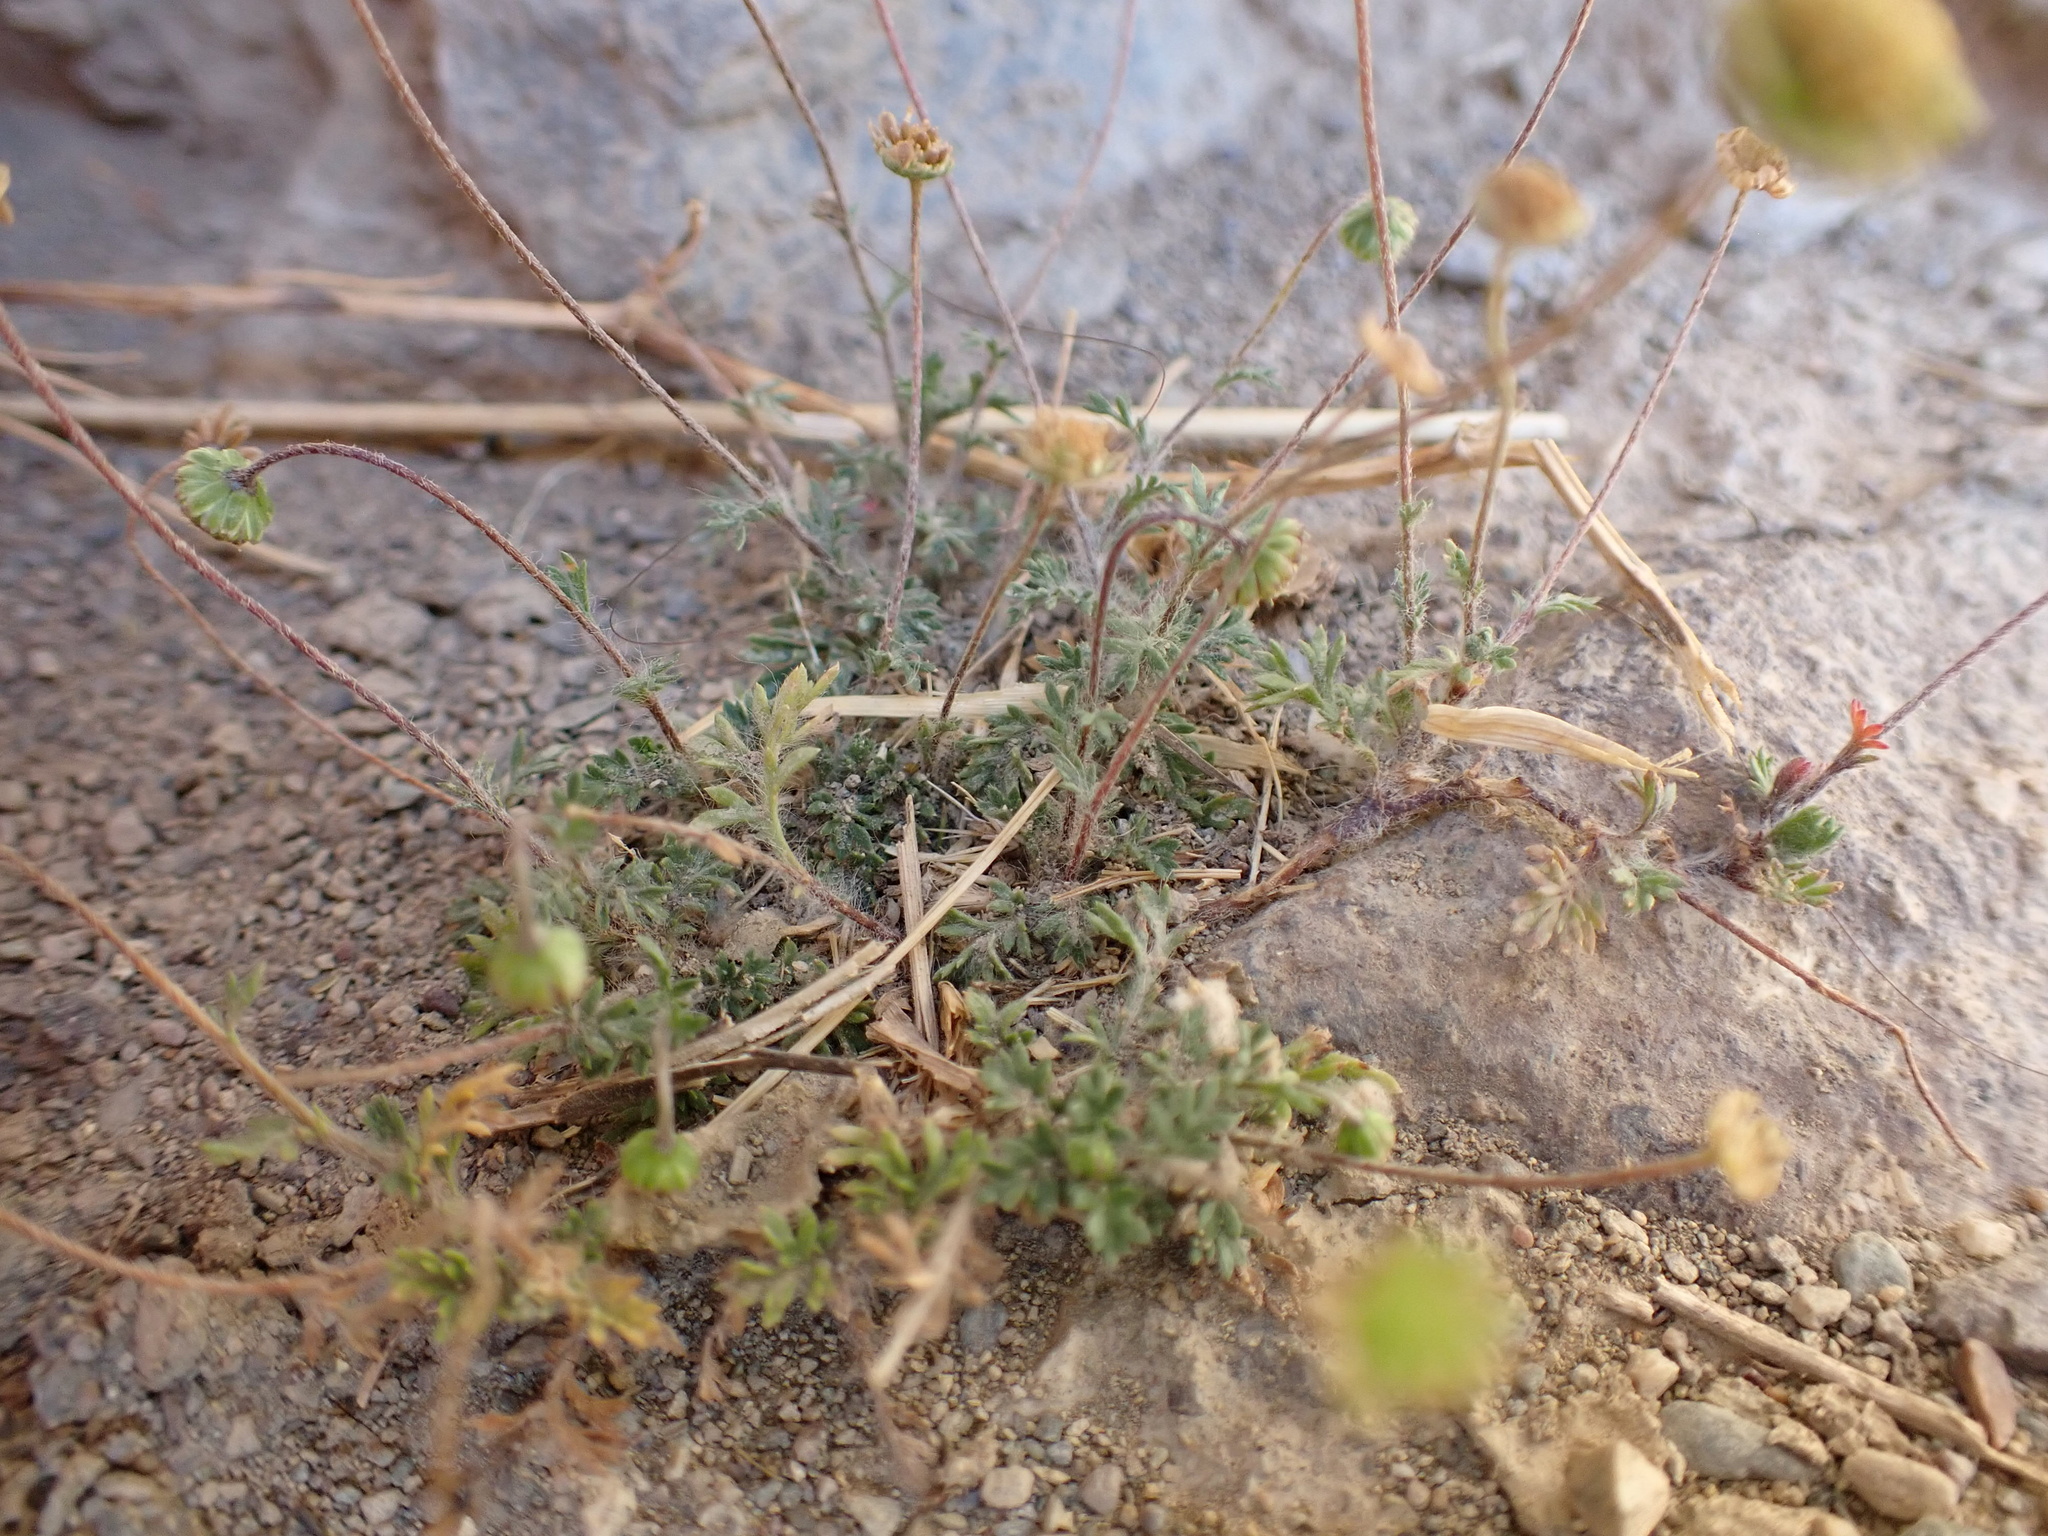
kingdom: Plantae
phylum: Tracheophyta
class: Magnoliopsida
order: Asterales
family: Asteraceae
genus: Cotula
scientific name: Cotula australis
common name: Australian waterbuttons
